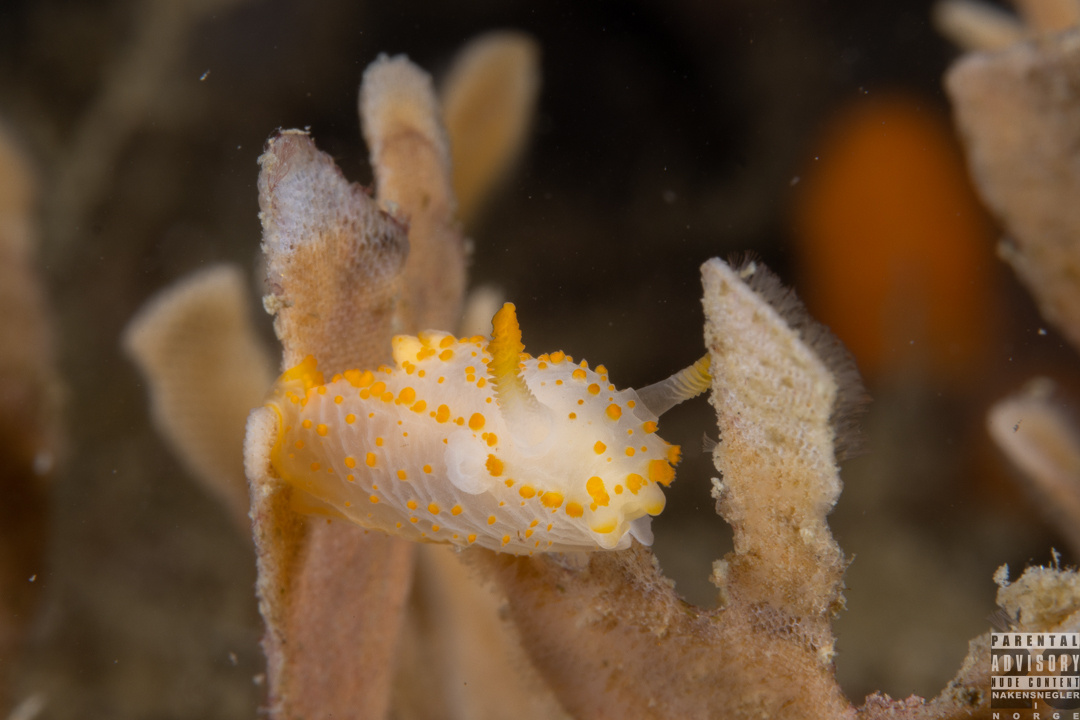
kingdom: Animalia
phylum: Mollusca
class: Gastropoda
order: Nudibranchia
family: Polyceridae
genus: Crimora
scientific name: Crimora papillata
